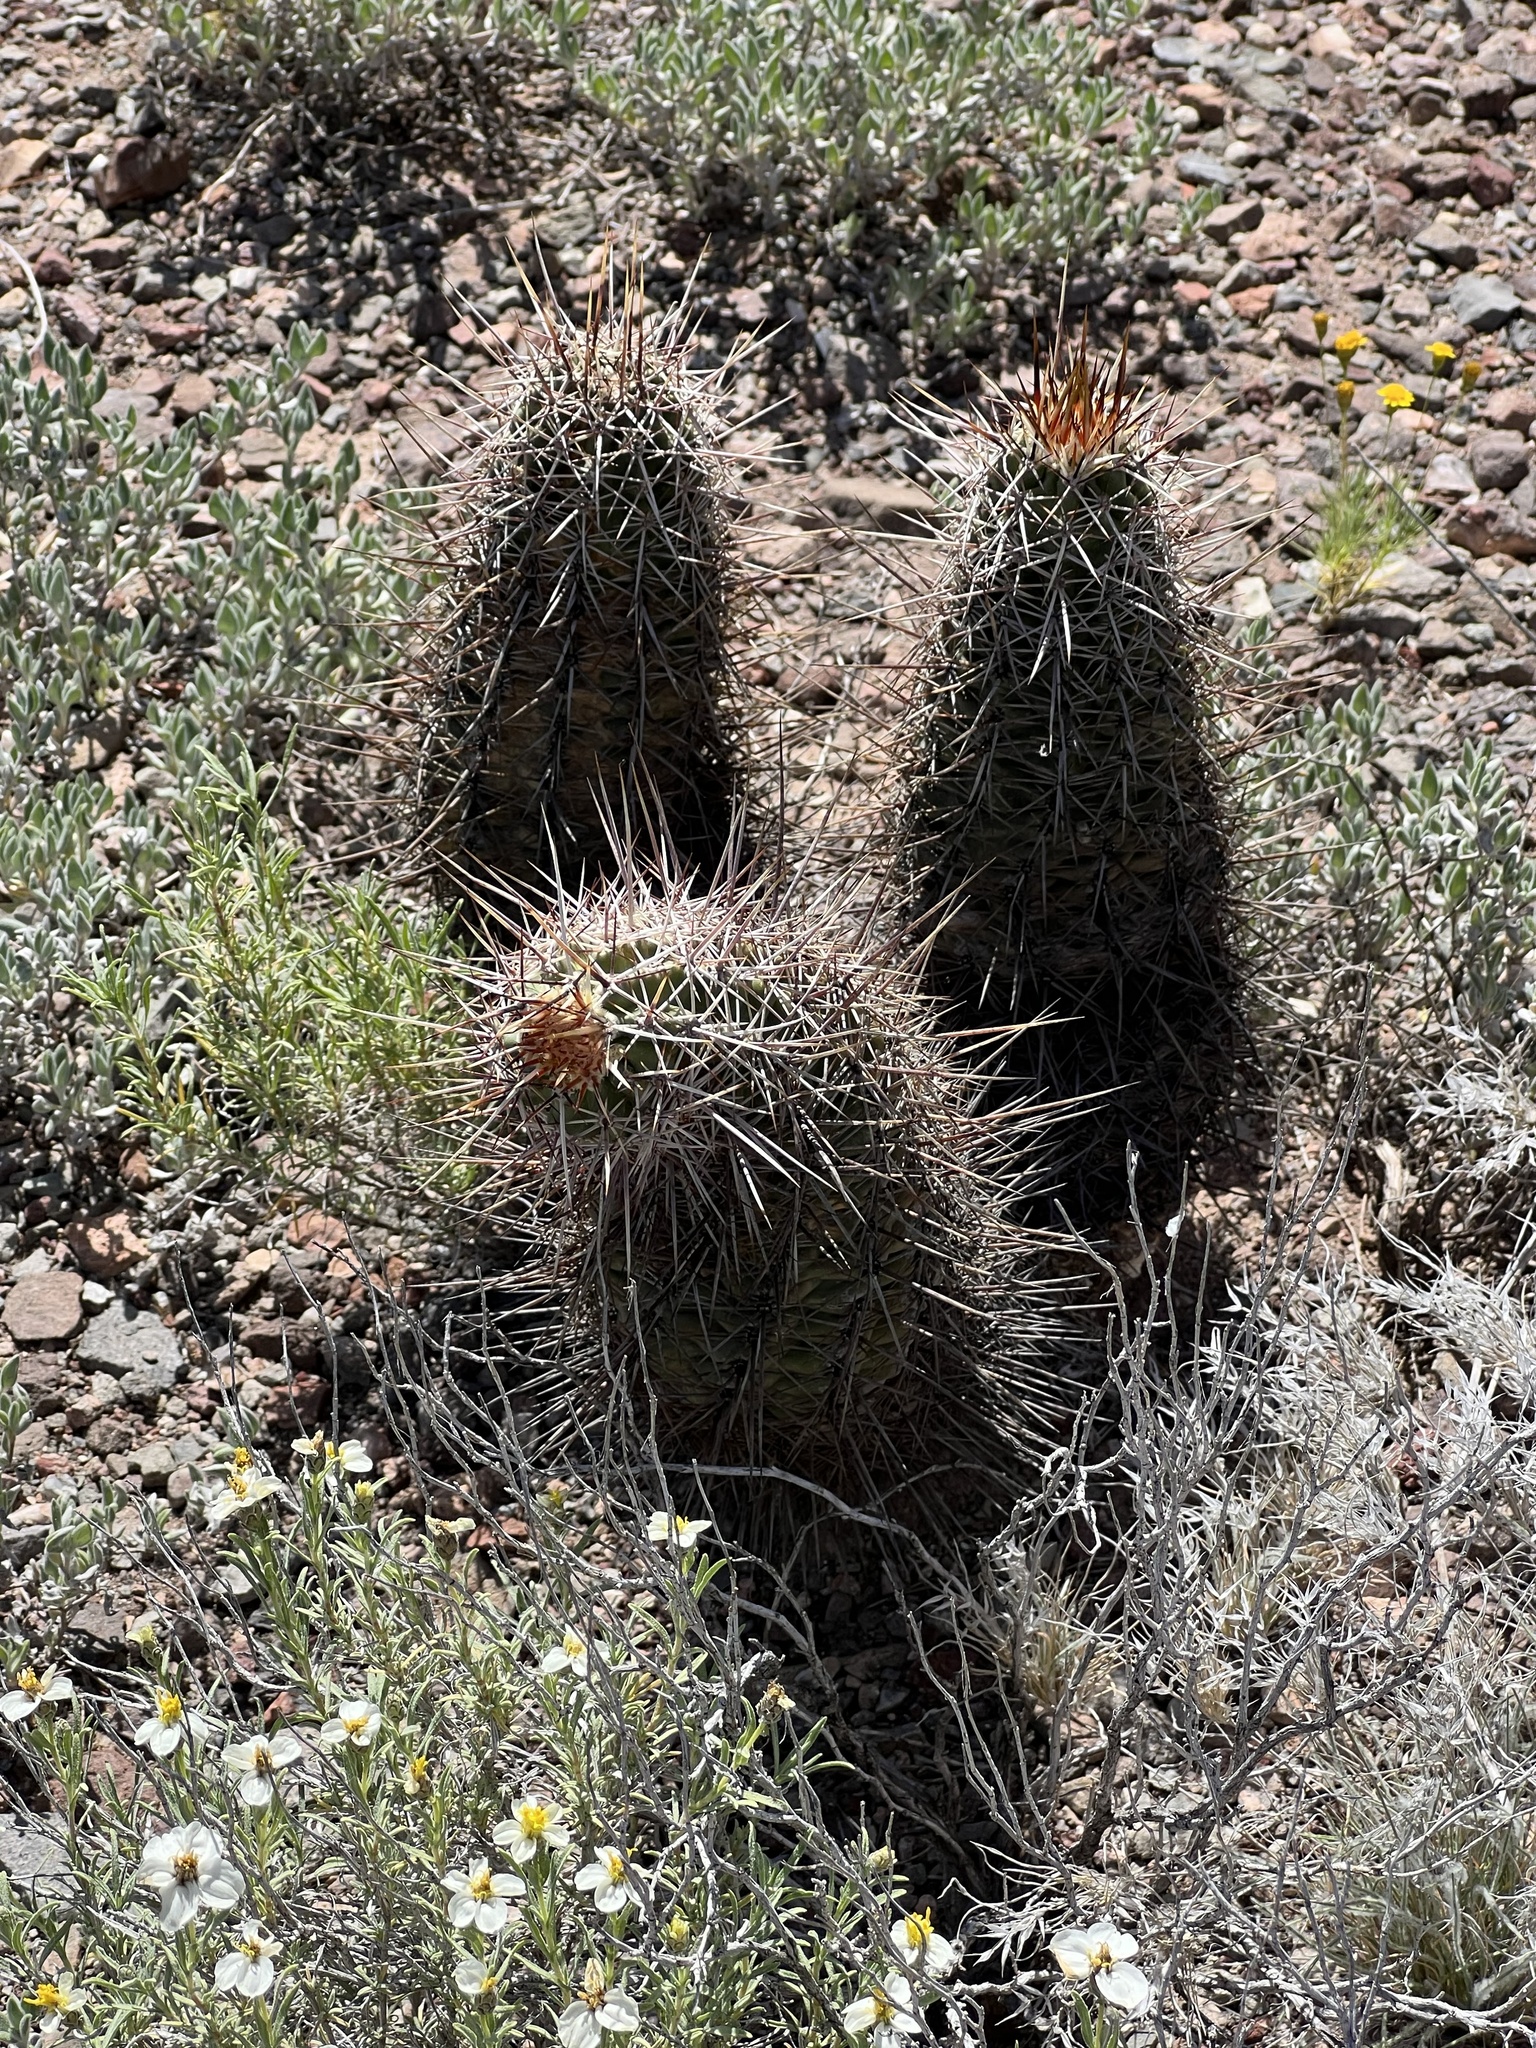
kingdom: Plantae
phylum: Tracheophyta
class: Magnoliopsida
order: Caryophyllales
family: Cactaceae
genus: Echinocereus
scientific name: Echinocereus fasciculatus
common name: Bundle hedgehog
